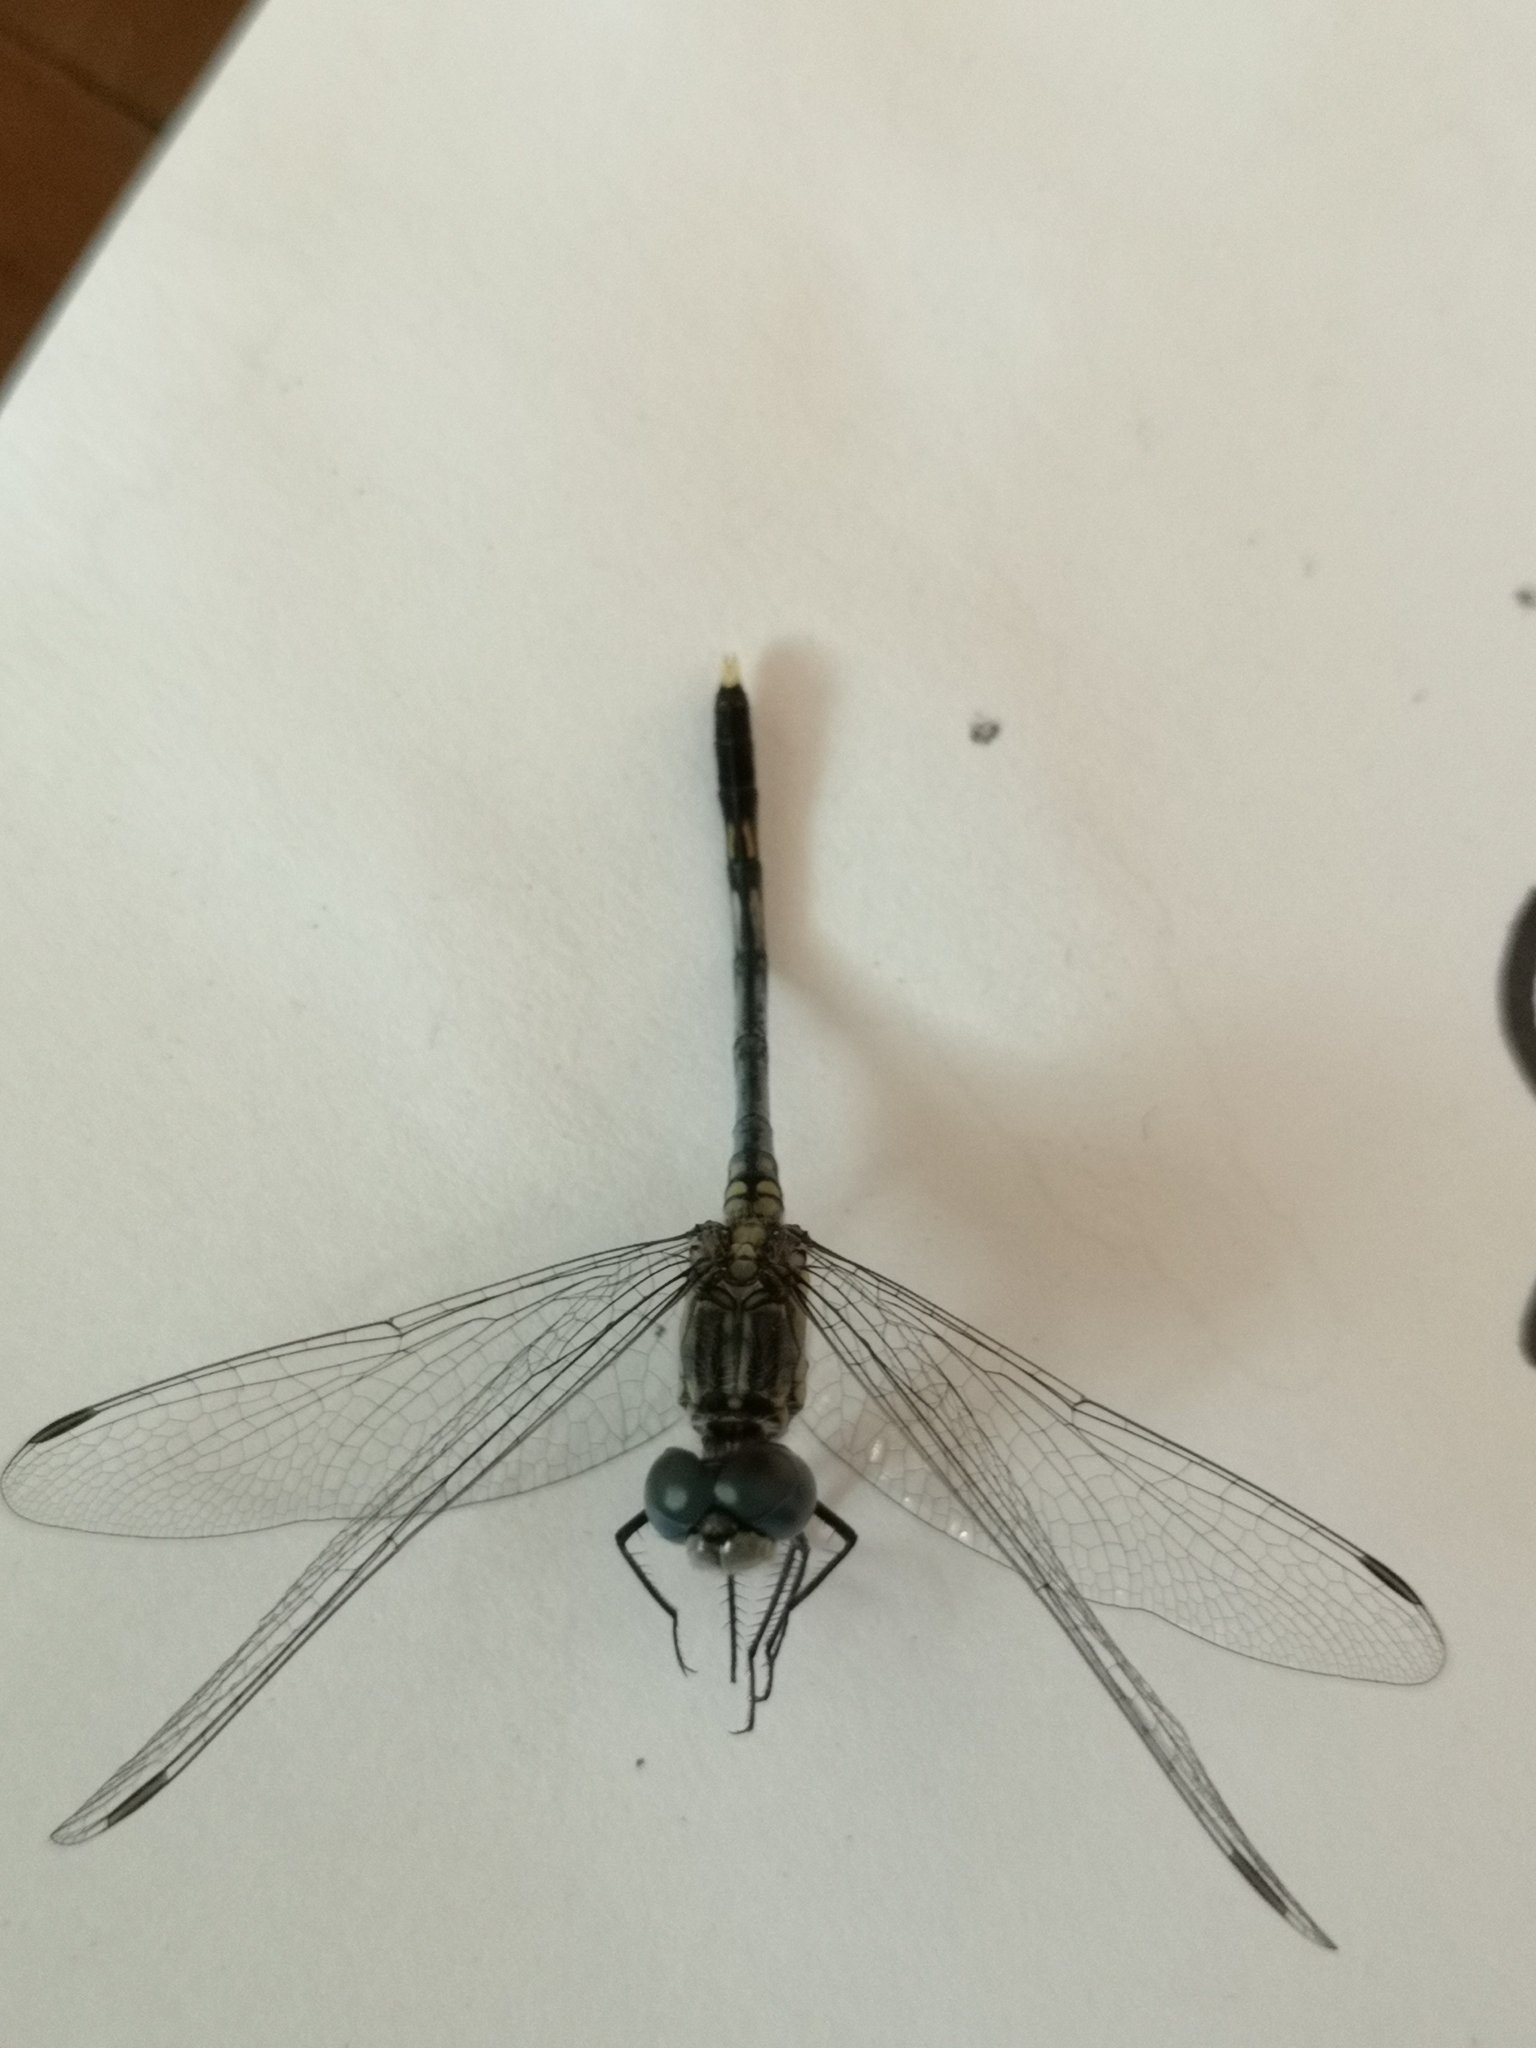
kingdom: Animalia
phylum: Arthropoda
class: Insecta
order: Odonata
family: Libellulidae
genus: Diplacodes
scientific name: Diplacodes trivialis
